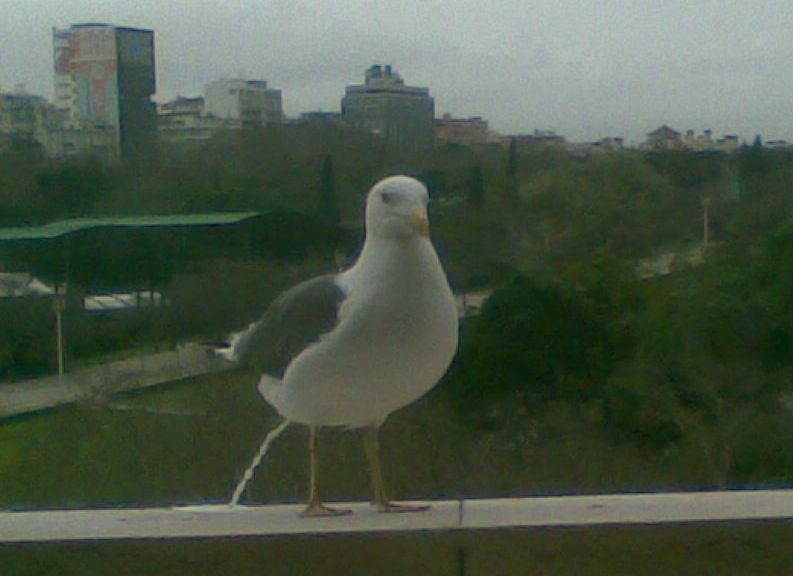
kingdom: Animalia
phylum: Chordata
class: Aves
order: Charadriiformes
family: Laridae
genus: Larus
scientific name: Larus fuscus
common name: Lesser black-backed gull
